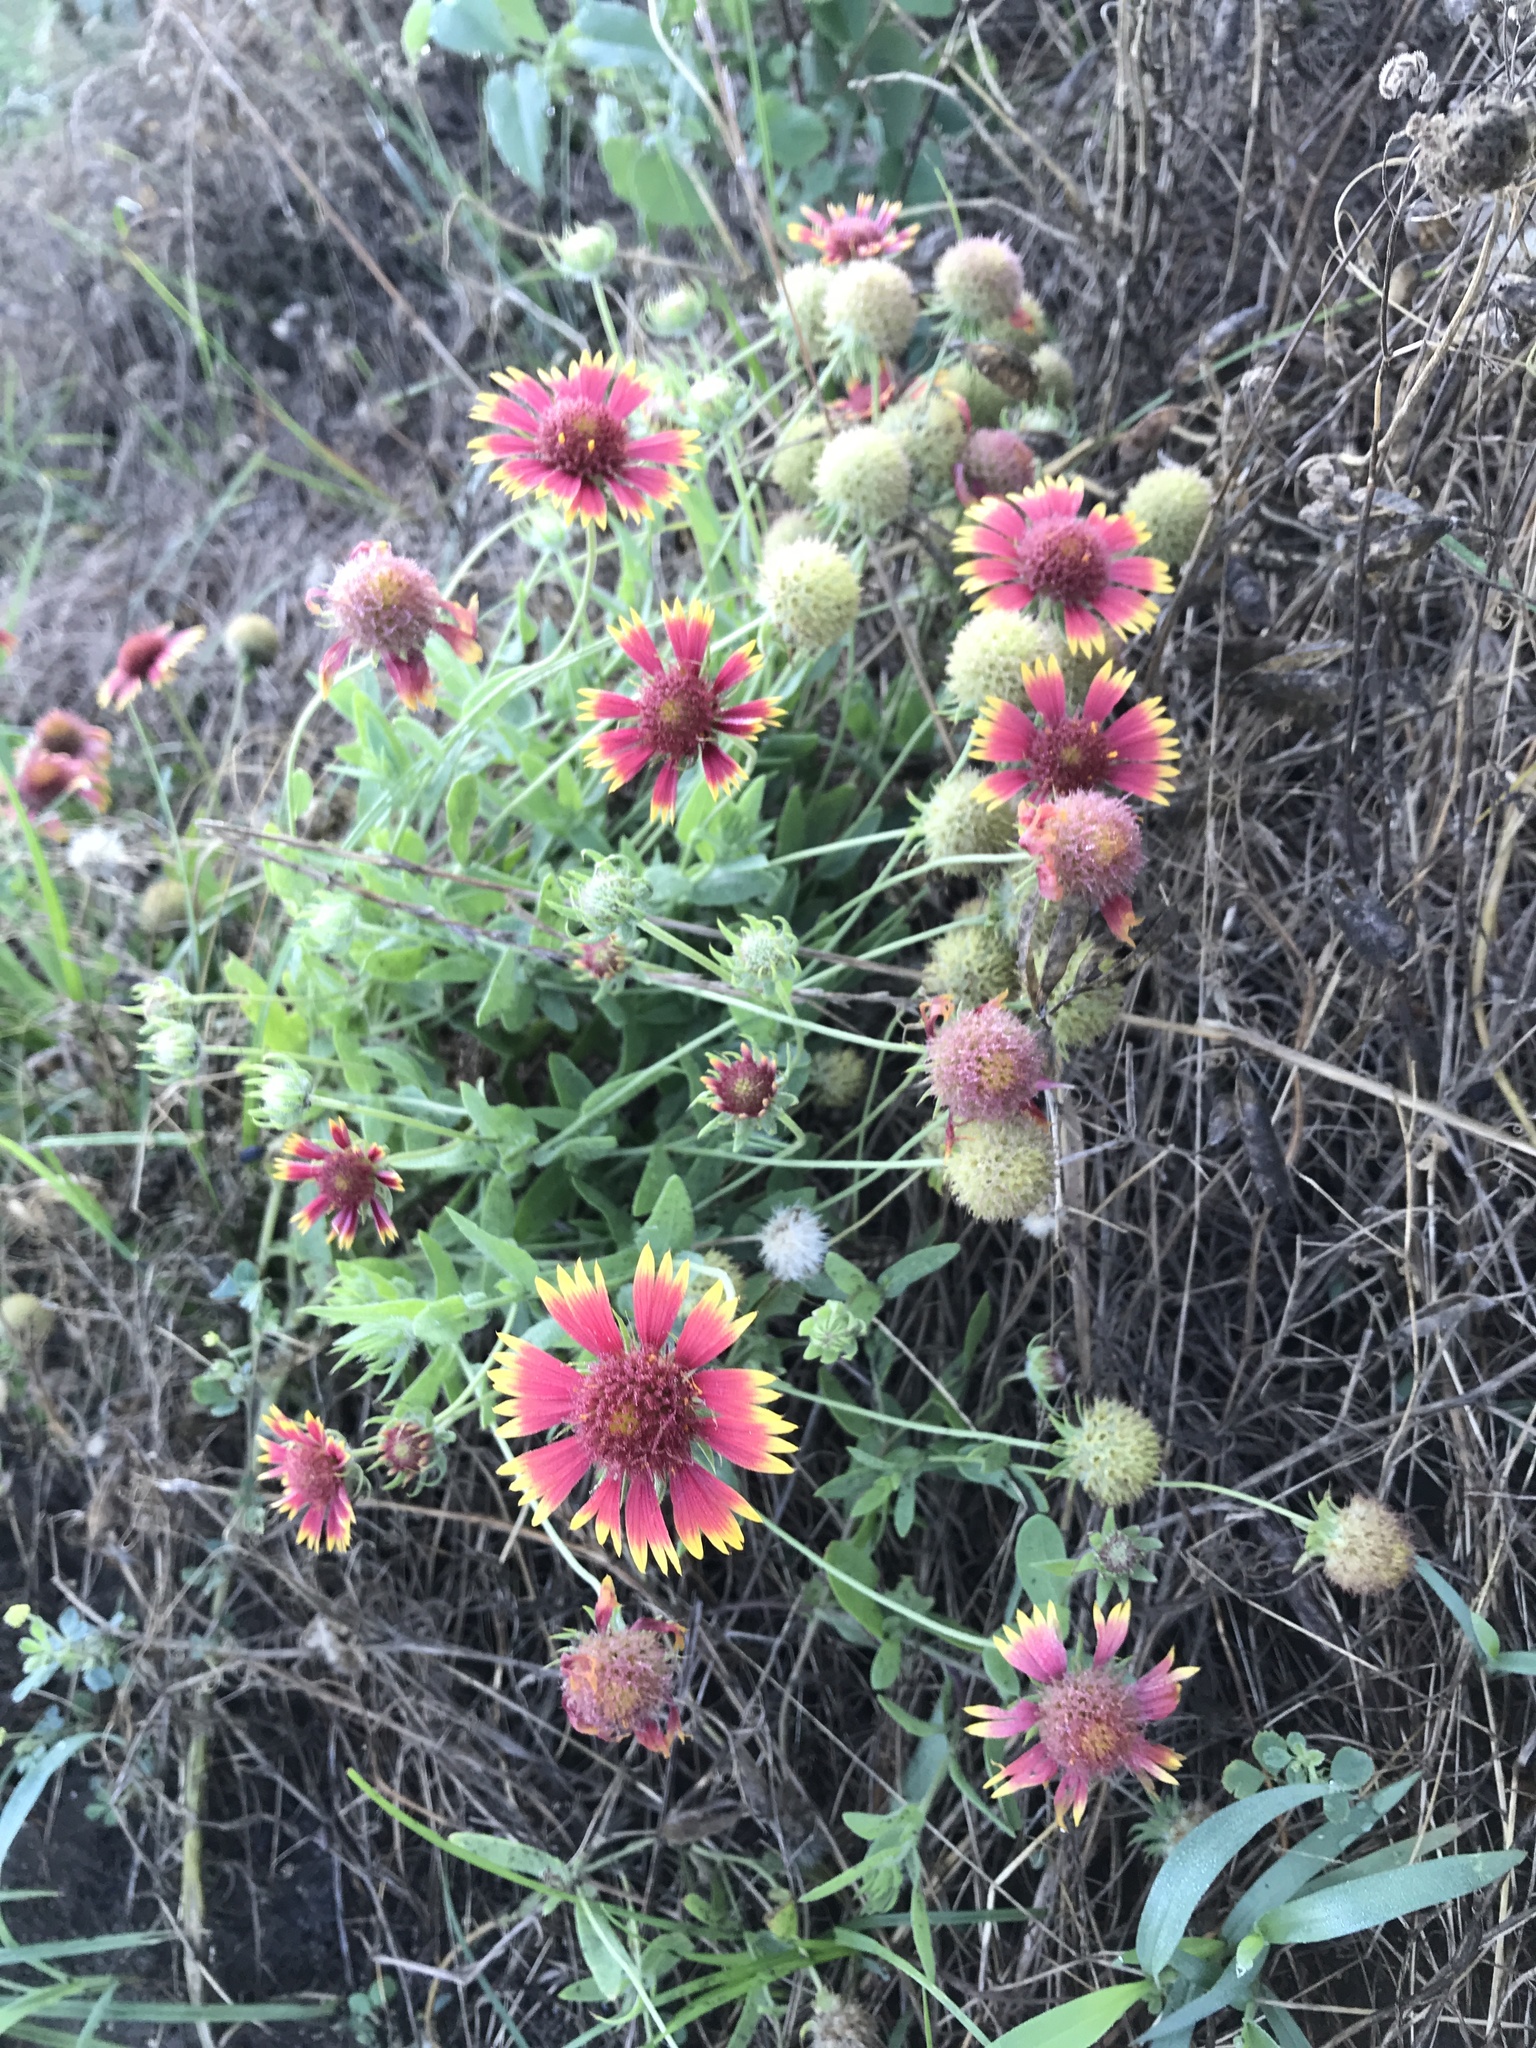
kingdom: Plantae
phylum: Tracheophyta
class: Magnoliopsida
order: Asterales
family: Asteraceae
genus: Gaillardia
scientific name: Gaillardia pulchella
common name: Firewheel
